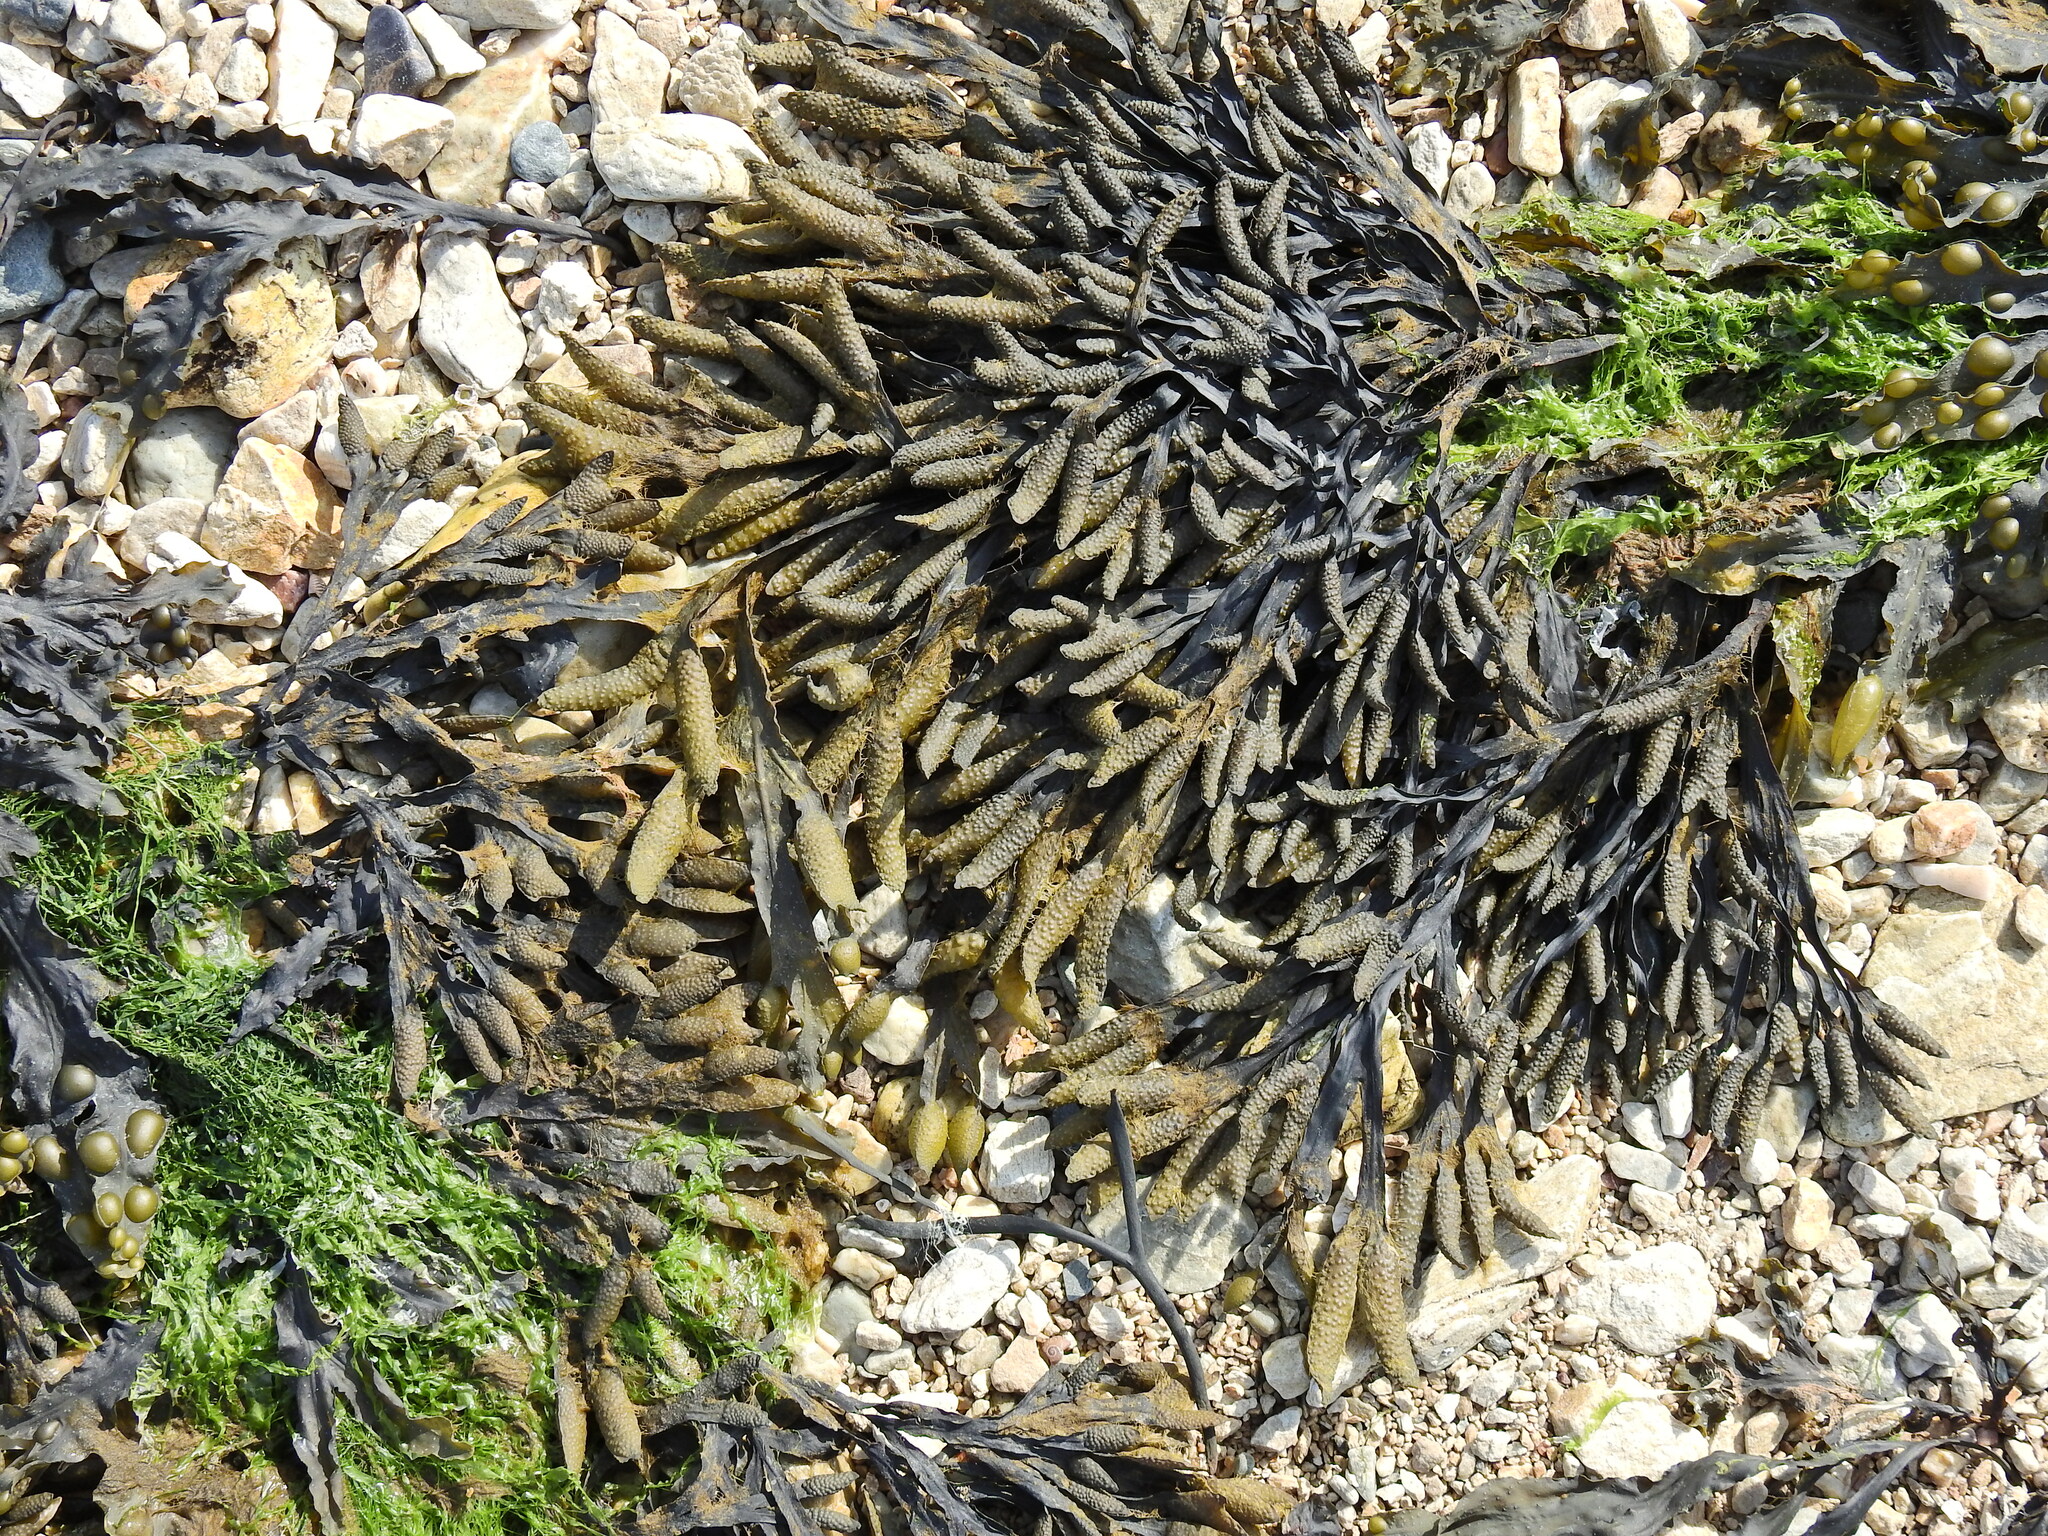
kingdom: Chromista
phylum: Ochrophyta
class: Phaeophyceae
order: Fucales
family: Fucaceae
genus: Fucus
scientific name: Fucus vesiculosus
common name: Bladder wrack
